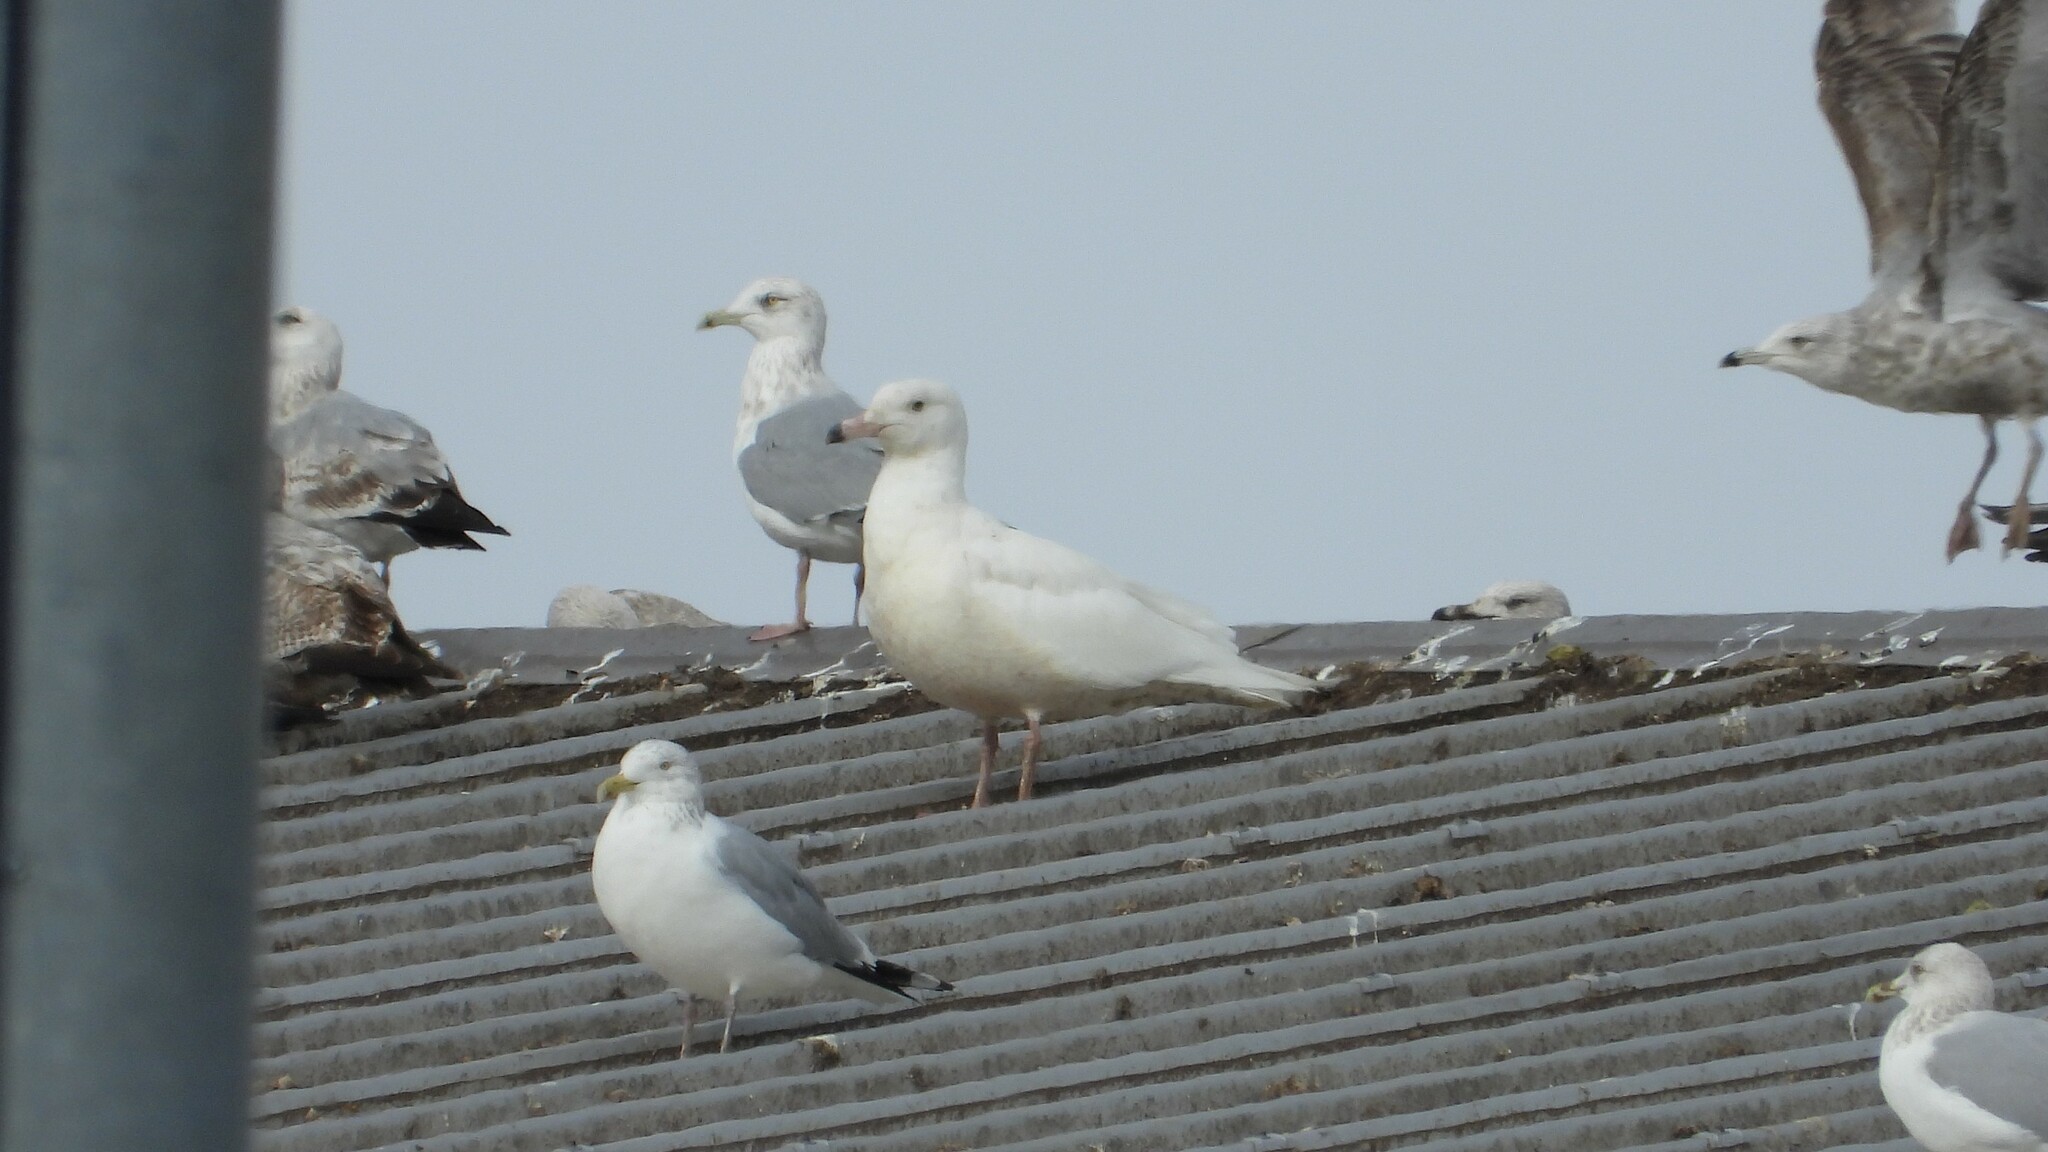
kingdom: Animalia
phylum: Chordata
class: Aves
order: Charadriiformes
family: Laridae
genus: Larus
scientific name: Larus hyperboreus
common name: Glaucous gull
